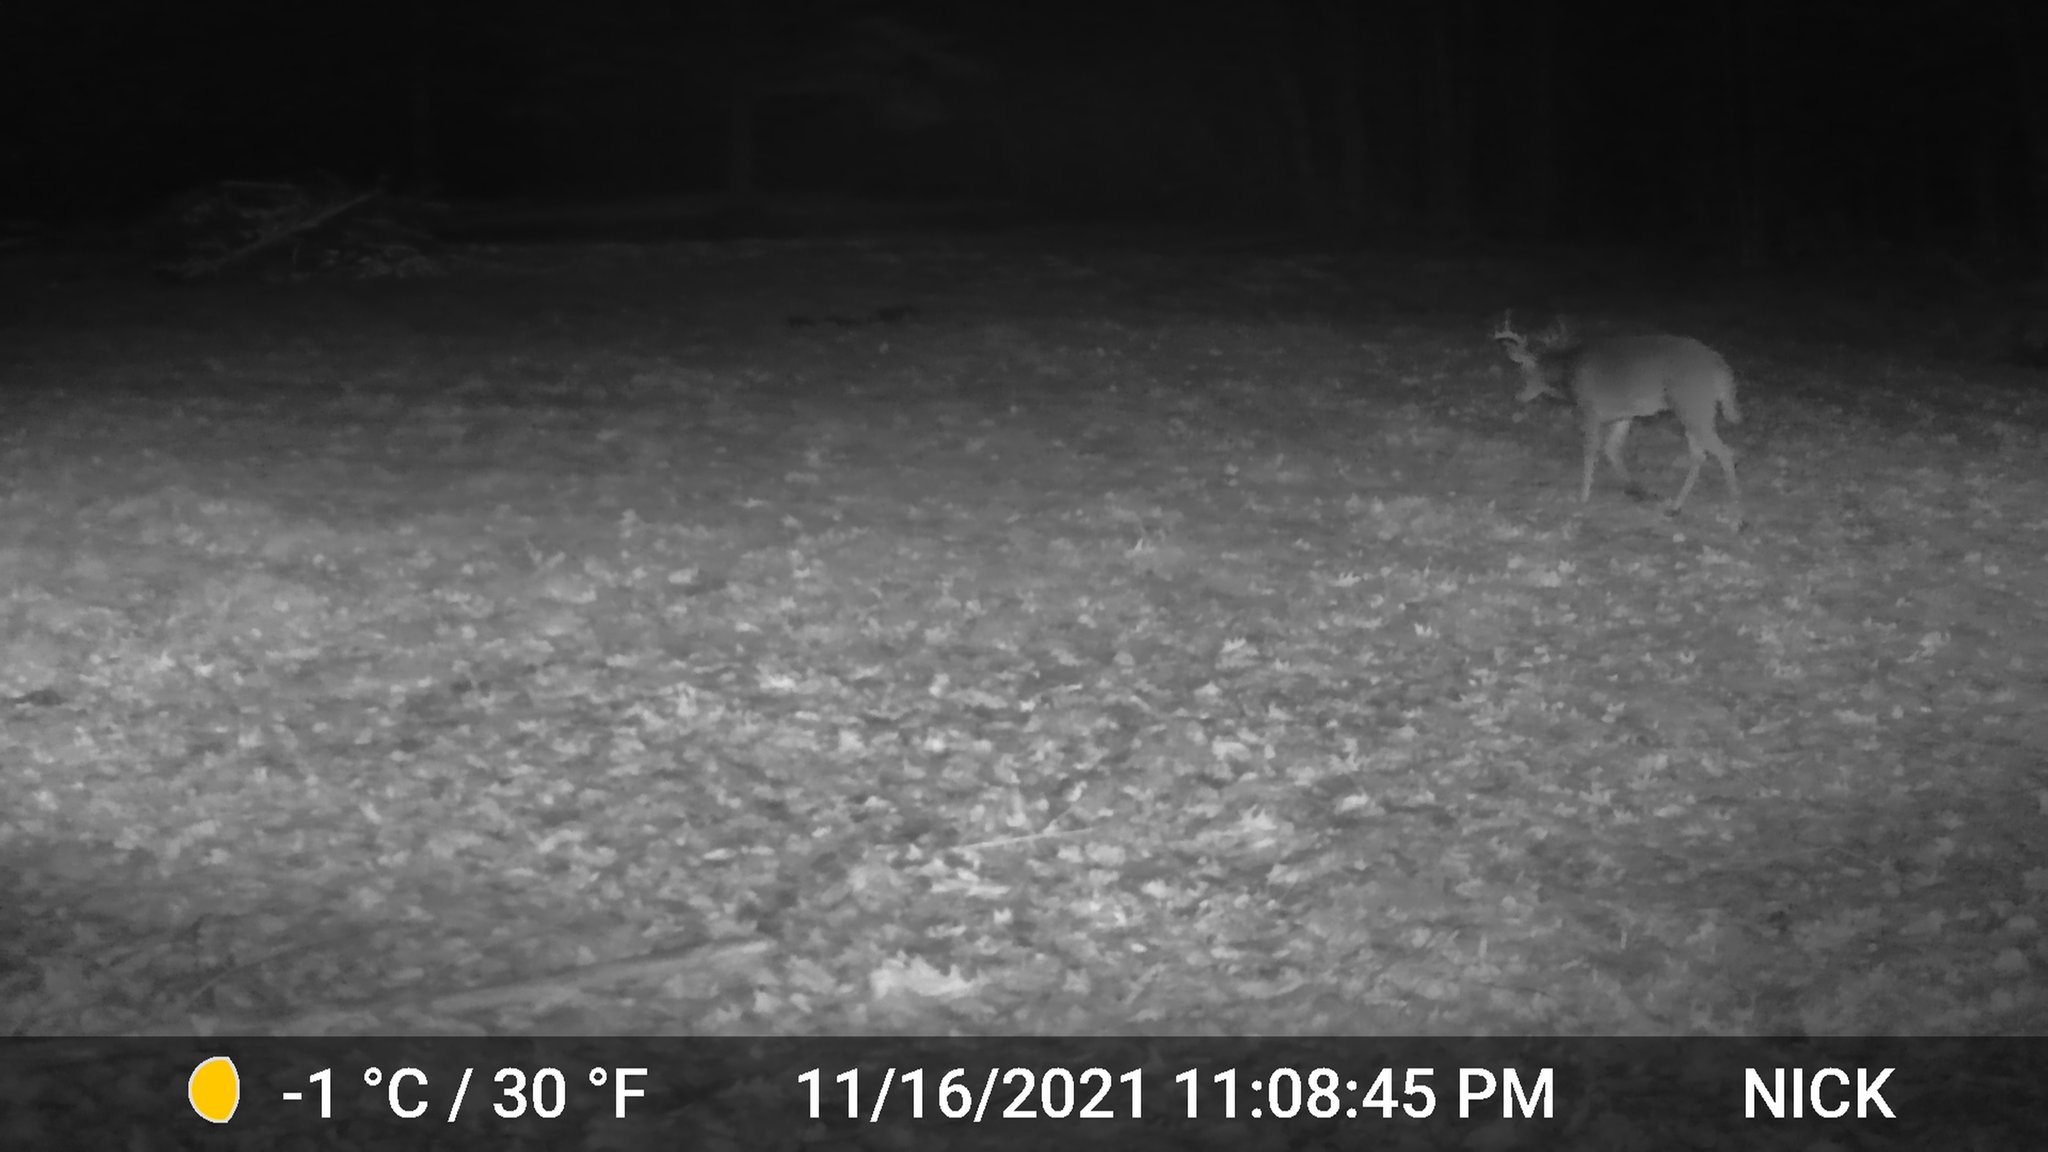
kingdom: Animalia
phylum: Chordata
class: Mammalia
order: Artiodactyla
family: Cervidae
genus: Odocoileus
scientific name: Odocoileus virginianus
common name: White-tailed deer
